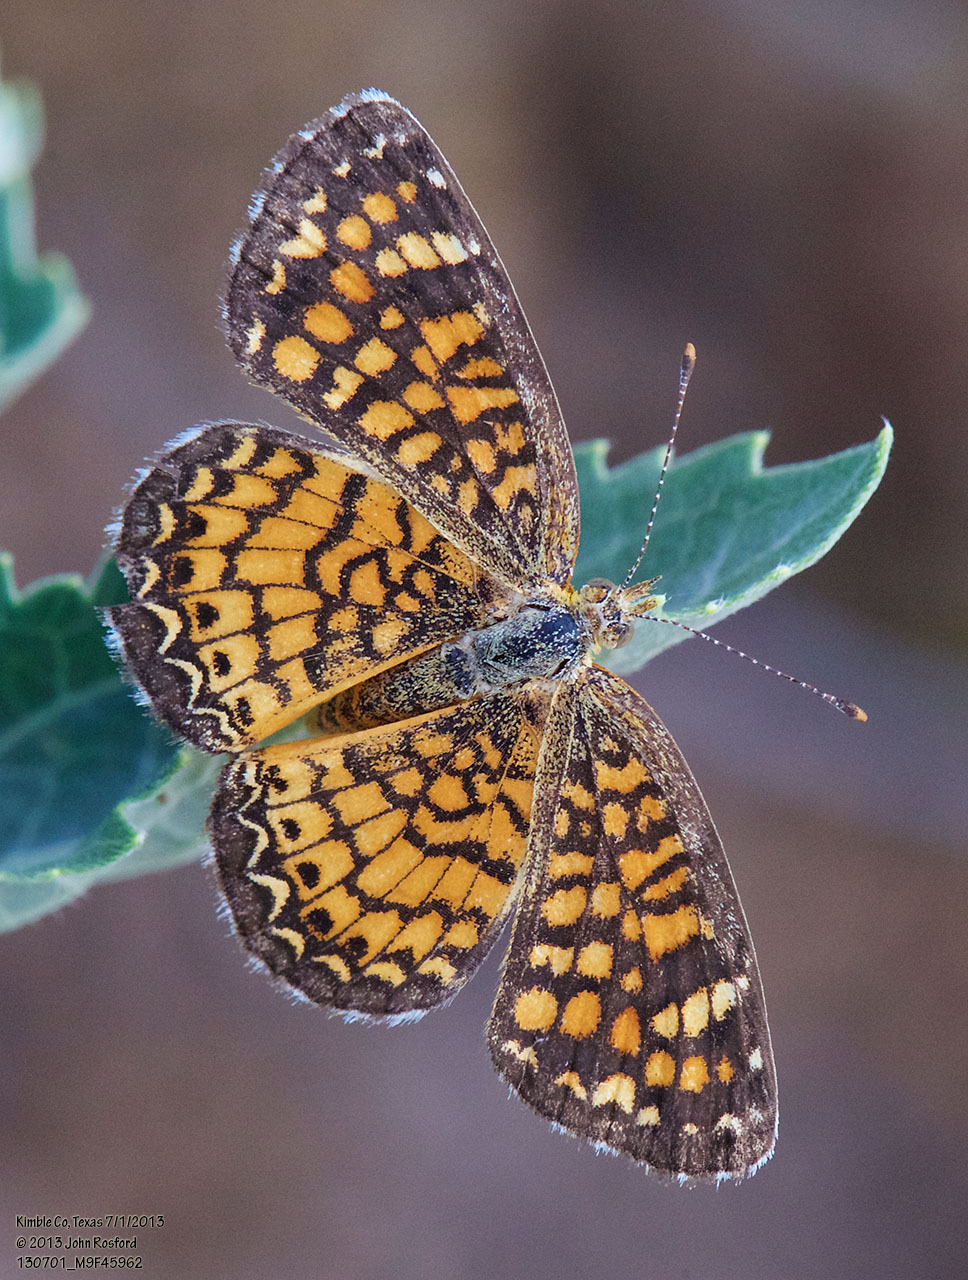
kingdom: Animalia
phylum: Arthropoda
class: Insecta
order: Lepidoptera
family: Nymphalidae
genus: Phyciodes
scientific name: Phyciodes vesta
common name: Vesta crescent
